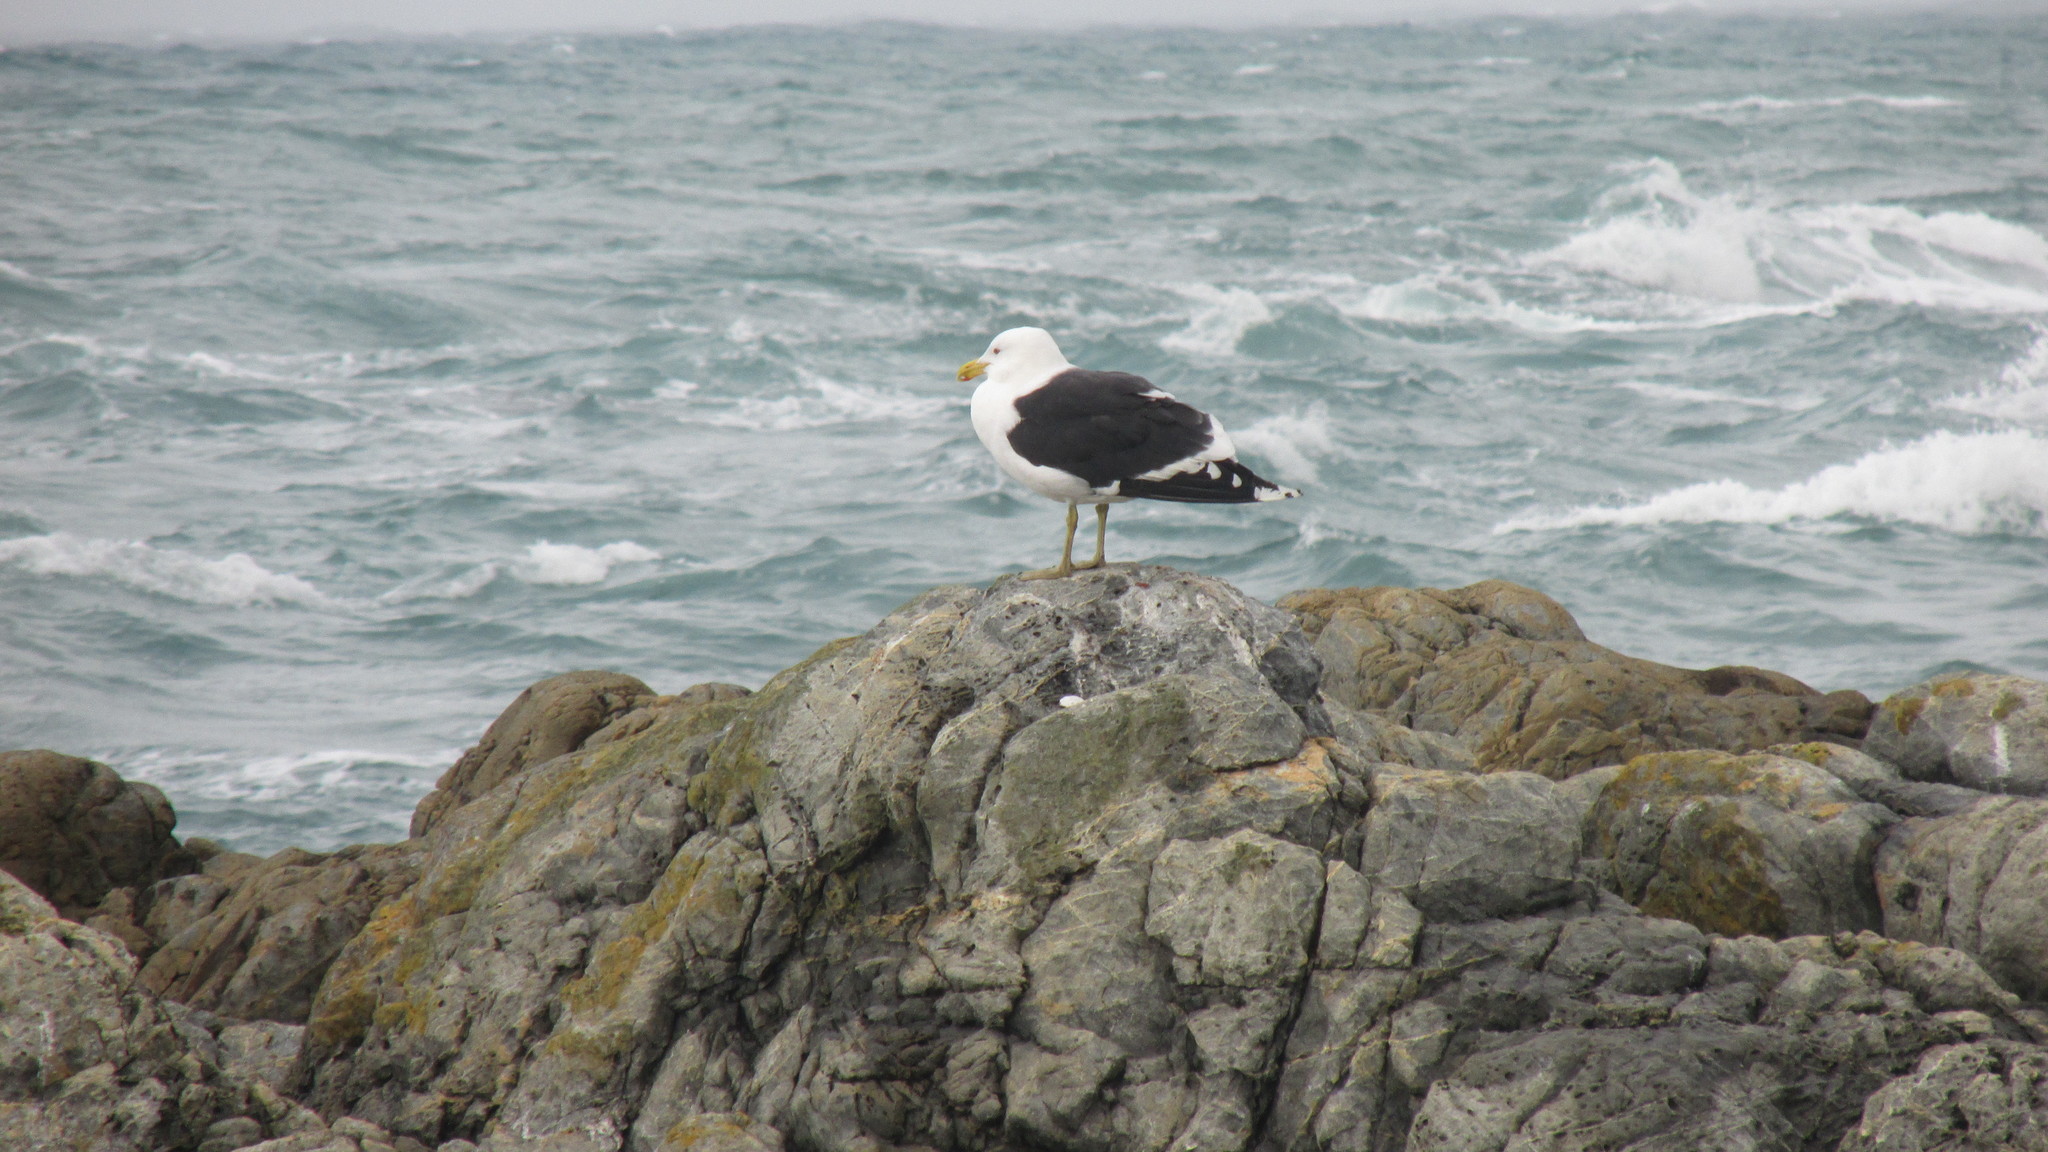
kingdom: Animalia
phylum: Chordata
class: Aves
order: Charadriiformes
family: Laridae
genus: Larus
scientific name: Larus dominicanus
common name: Kelp gull
